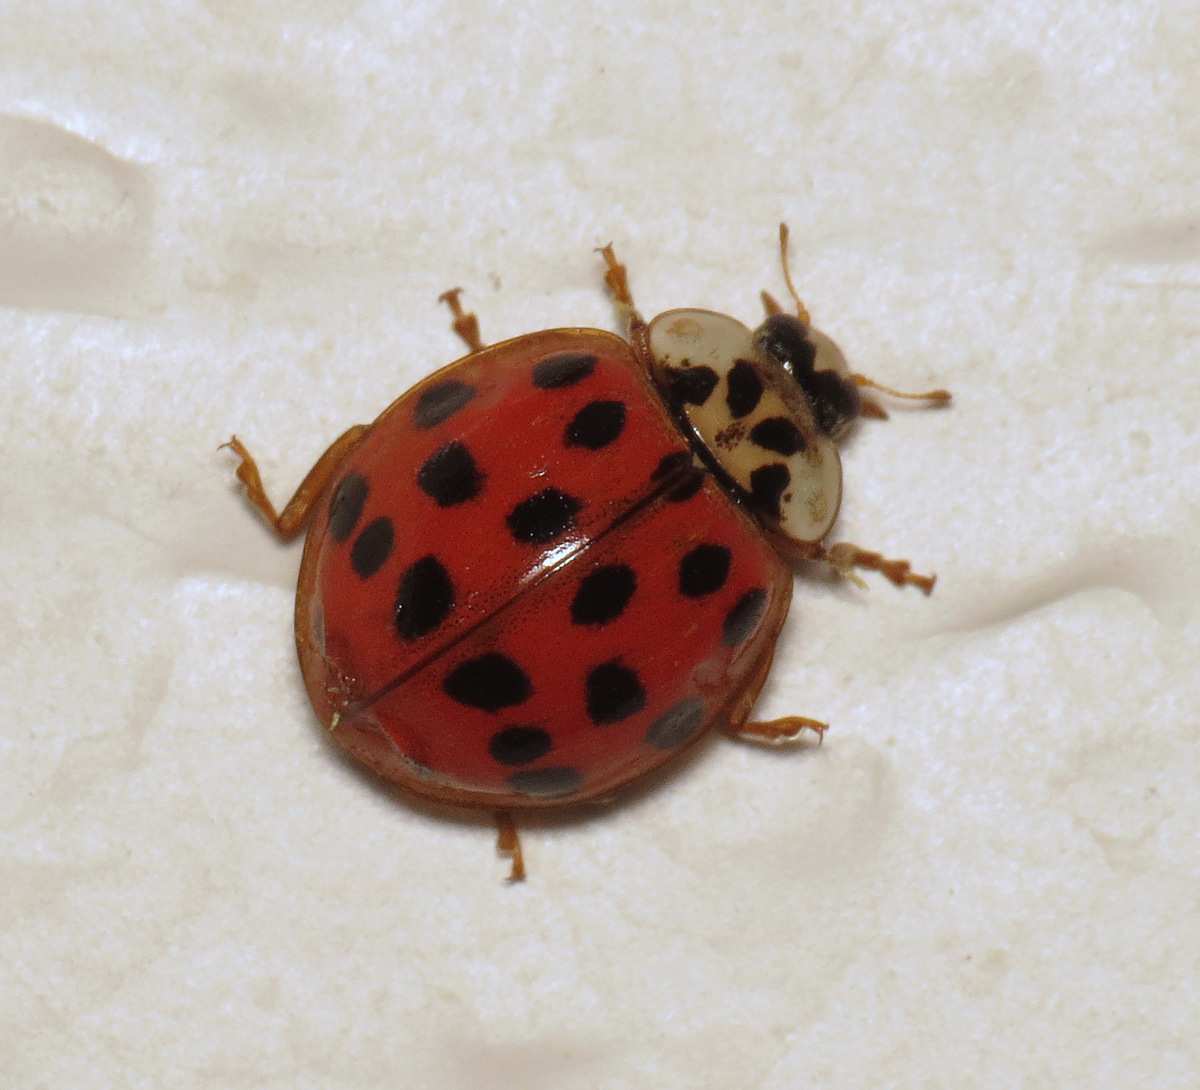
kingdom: Animalia
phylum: Arthropoda
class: Insecta
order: Coleoptera
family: Coccinellidae
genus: Harmonia
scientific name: Harmonia axyridis
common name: Harlequin ladybird
